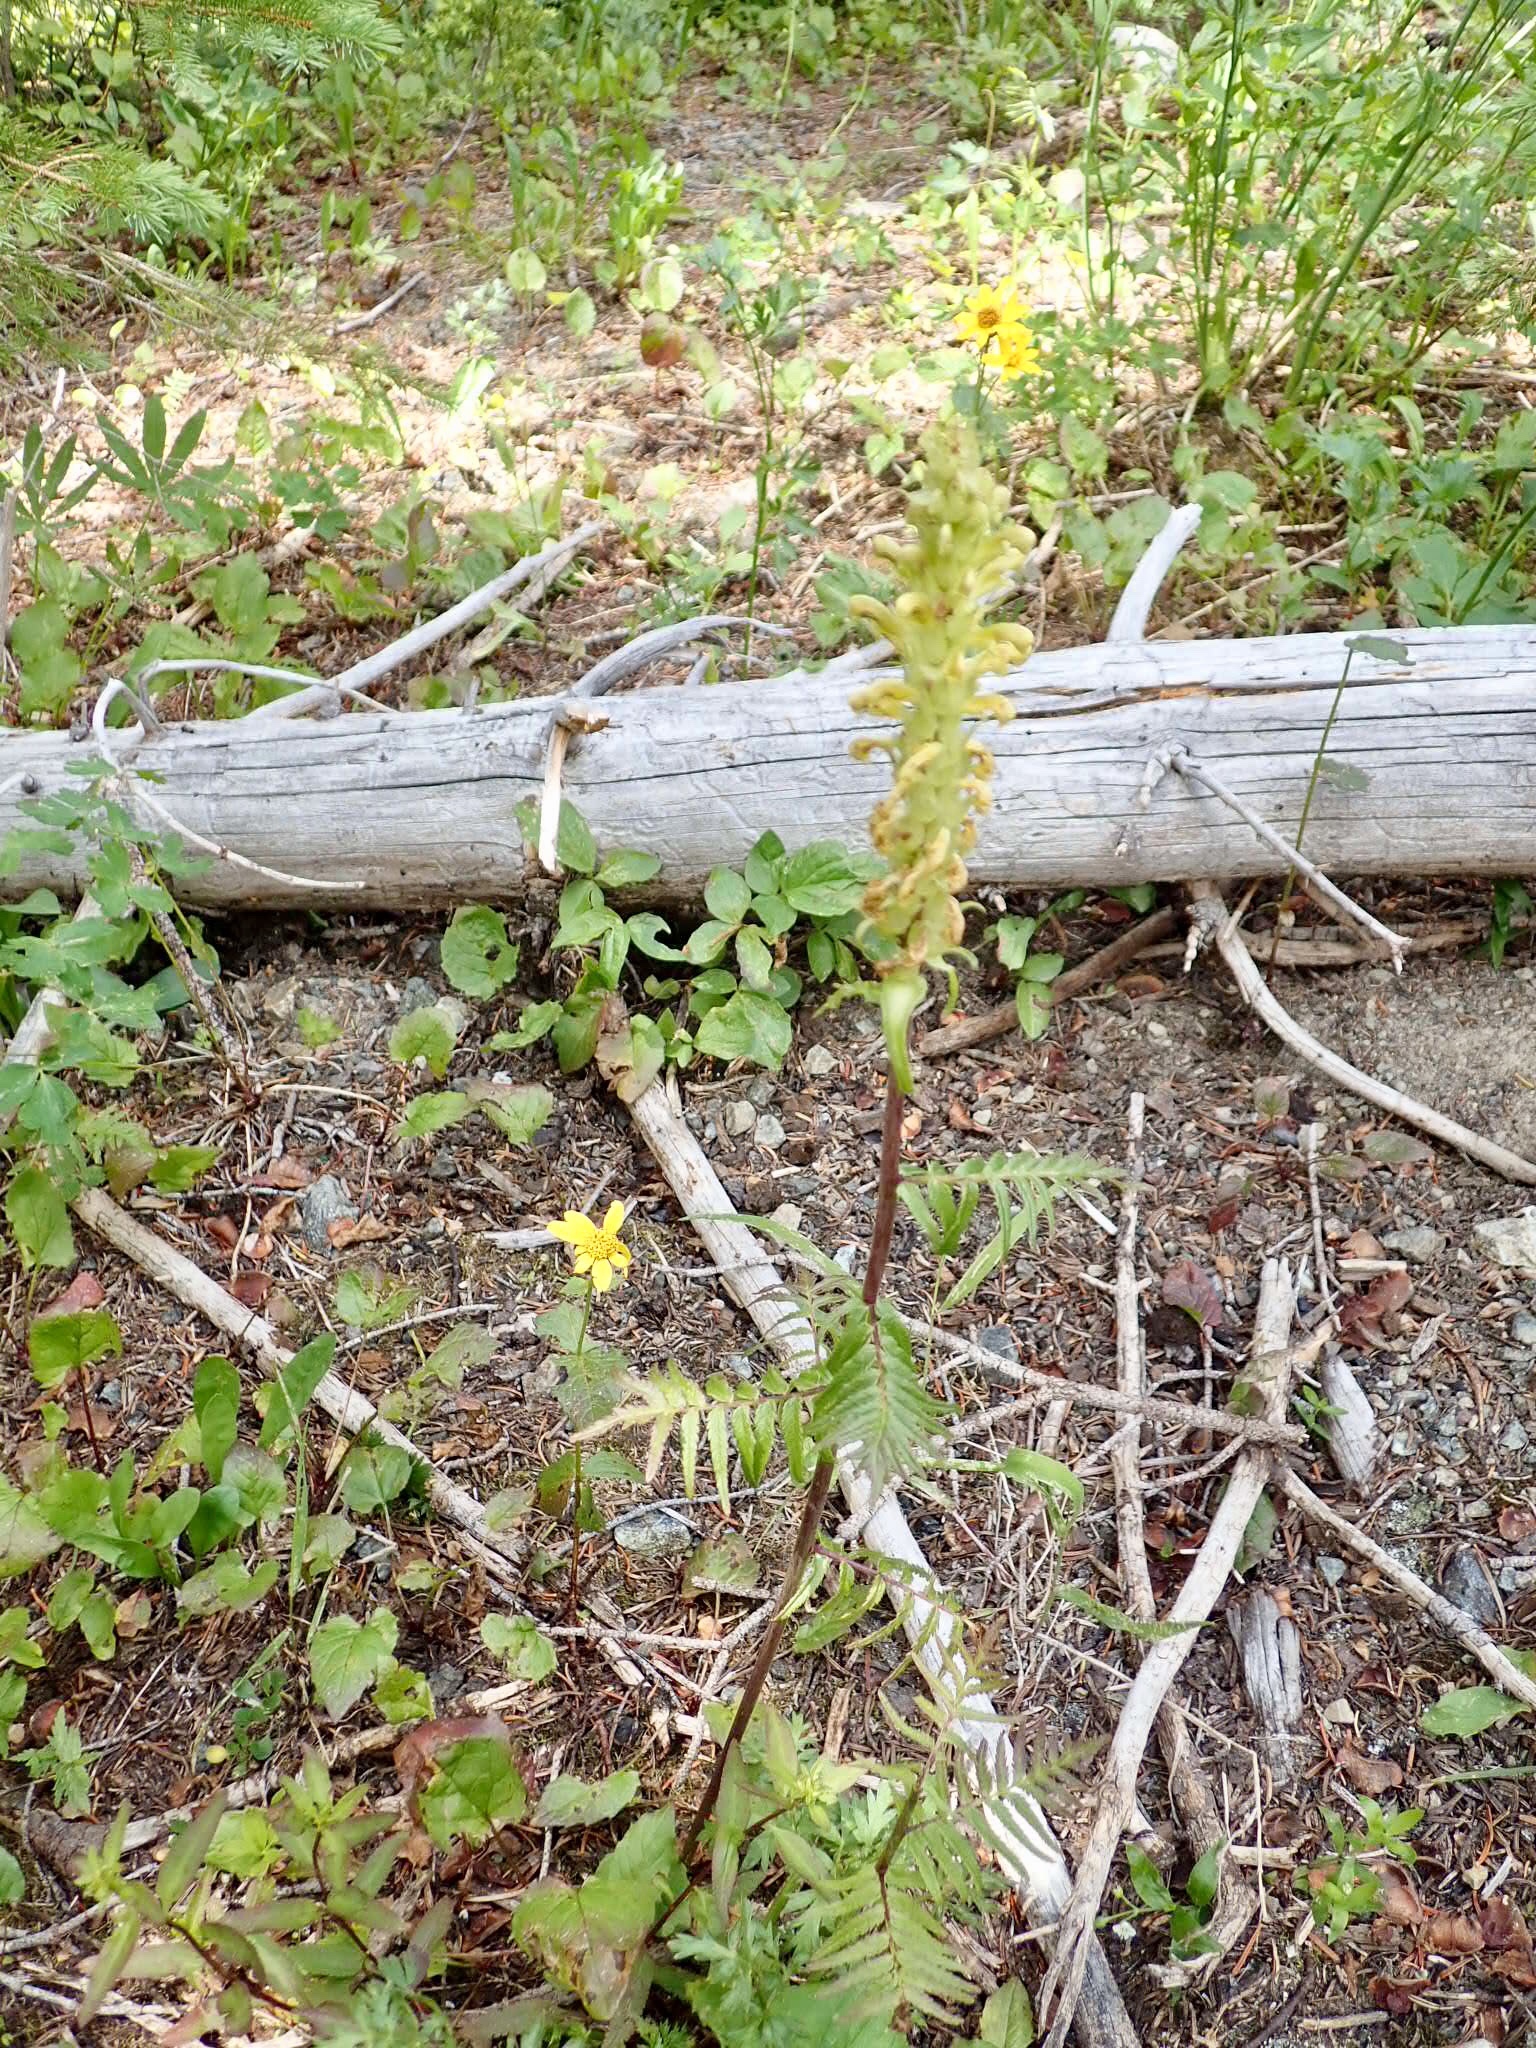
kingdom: Plantae
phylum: Tracheophyta
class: Magnoliopsida
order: Lamiales
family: Orobanchaceae
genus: Pedicularis
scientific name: Pedicularis bracteosa
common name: Bracted lousewort
